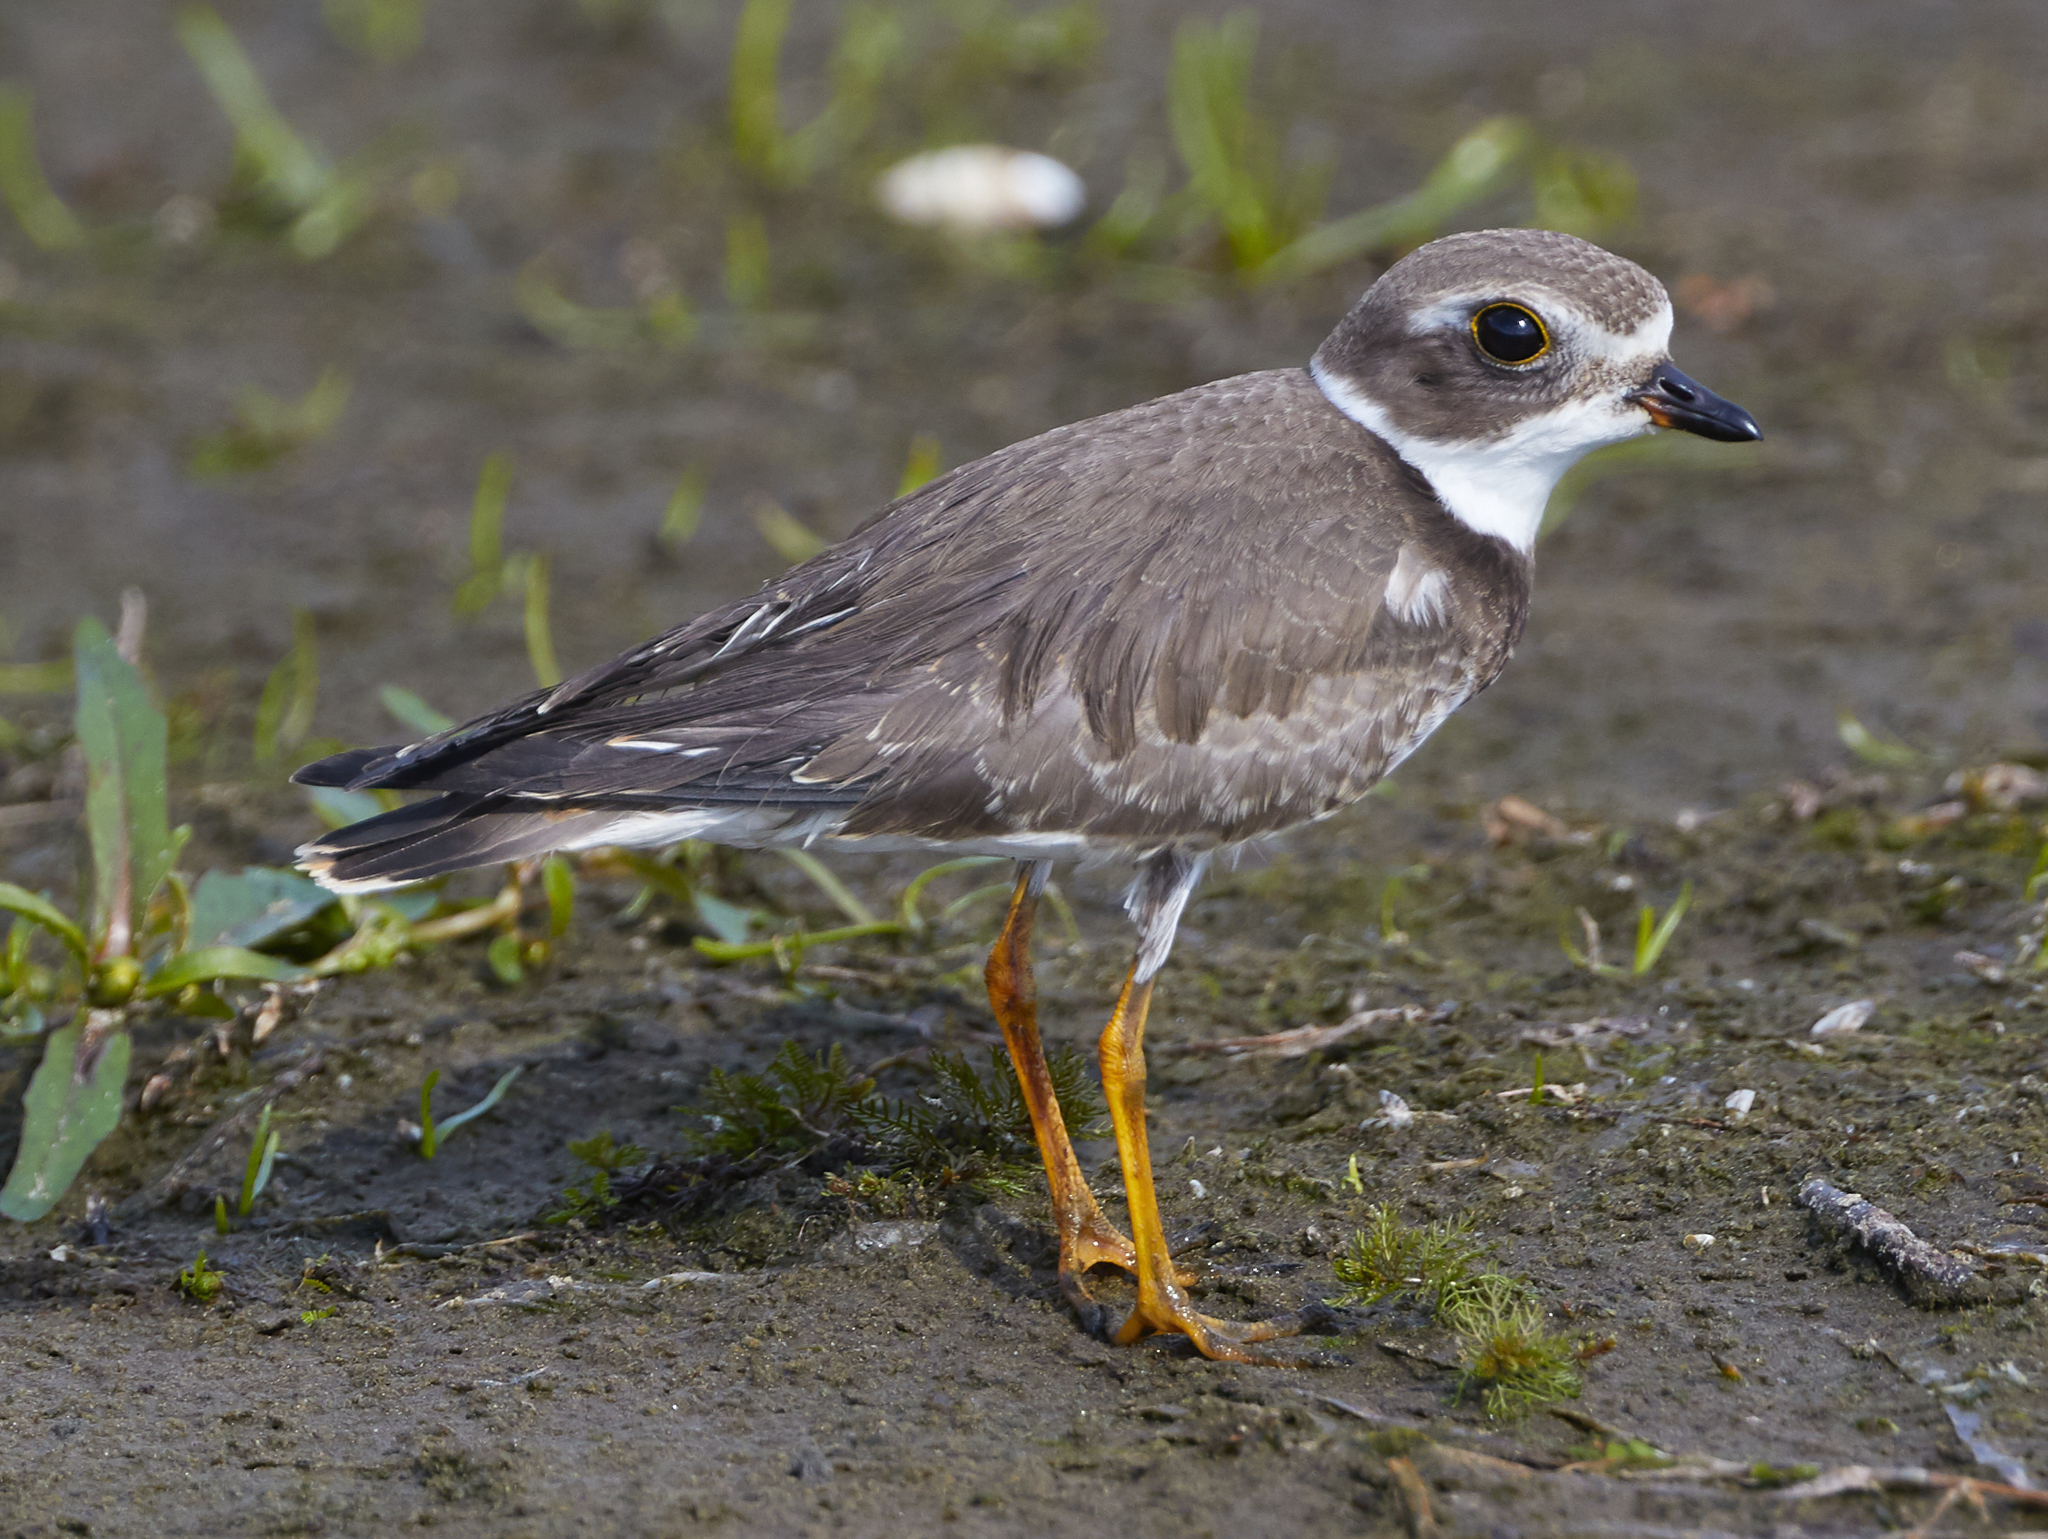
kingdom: Animalia
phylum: Chordata
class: Aves
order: Charadriiformes
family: Charadriidae
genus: Charadrius
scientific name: Charadrius semipalmatus
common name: Semipalmated plover
